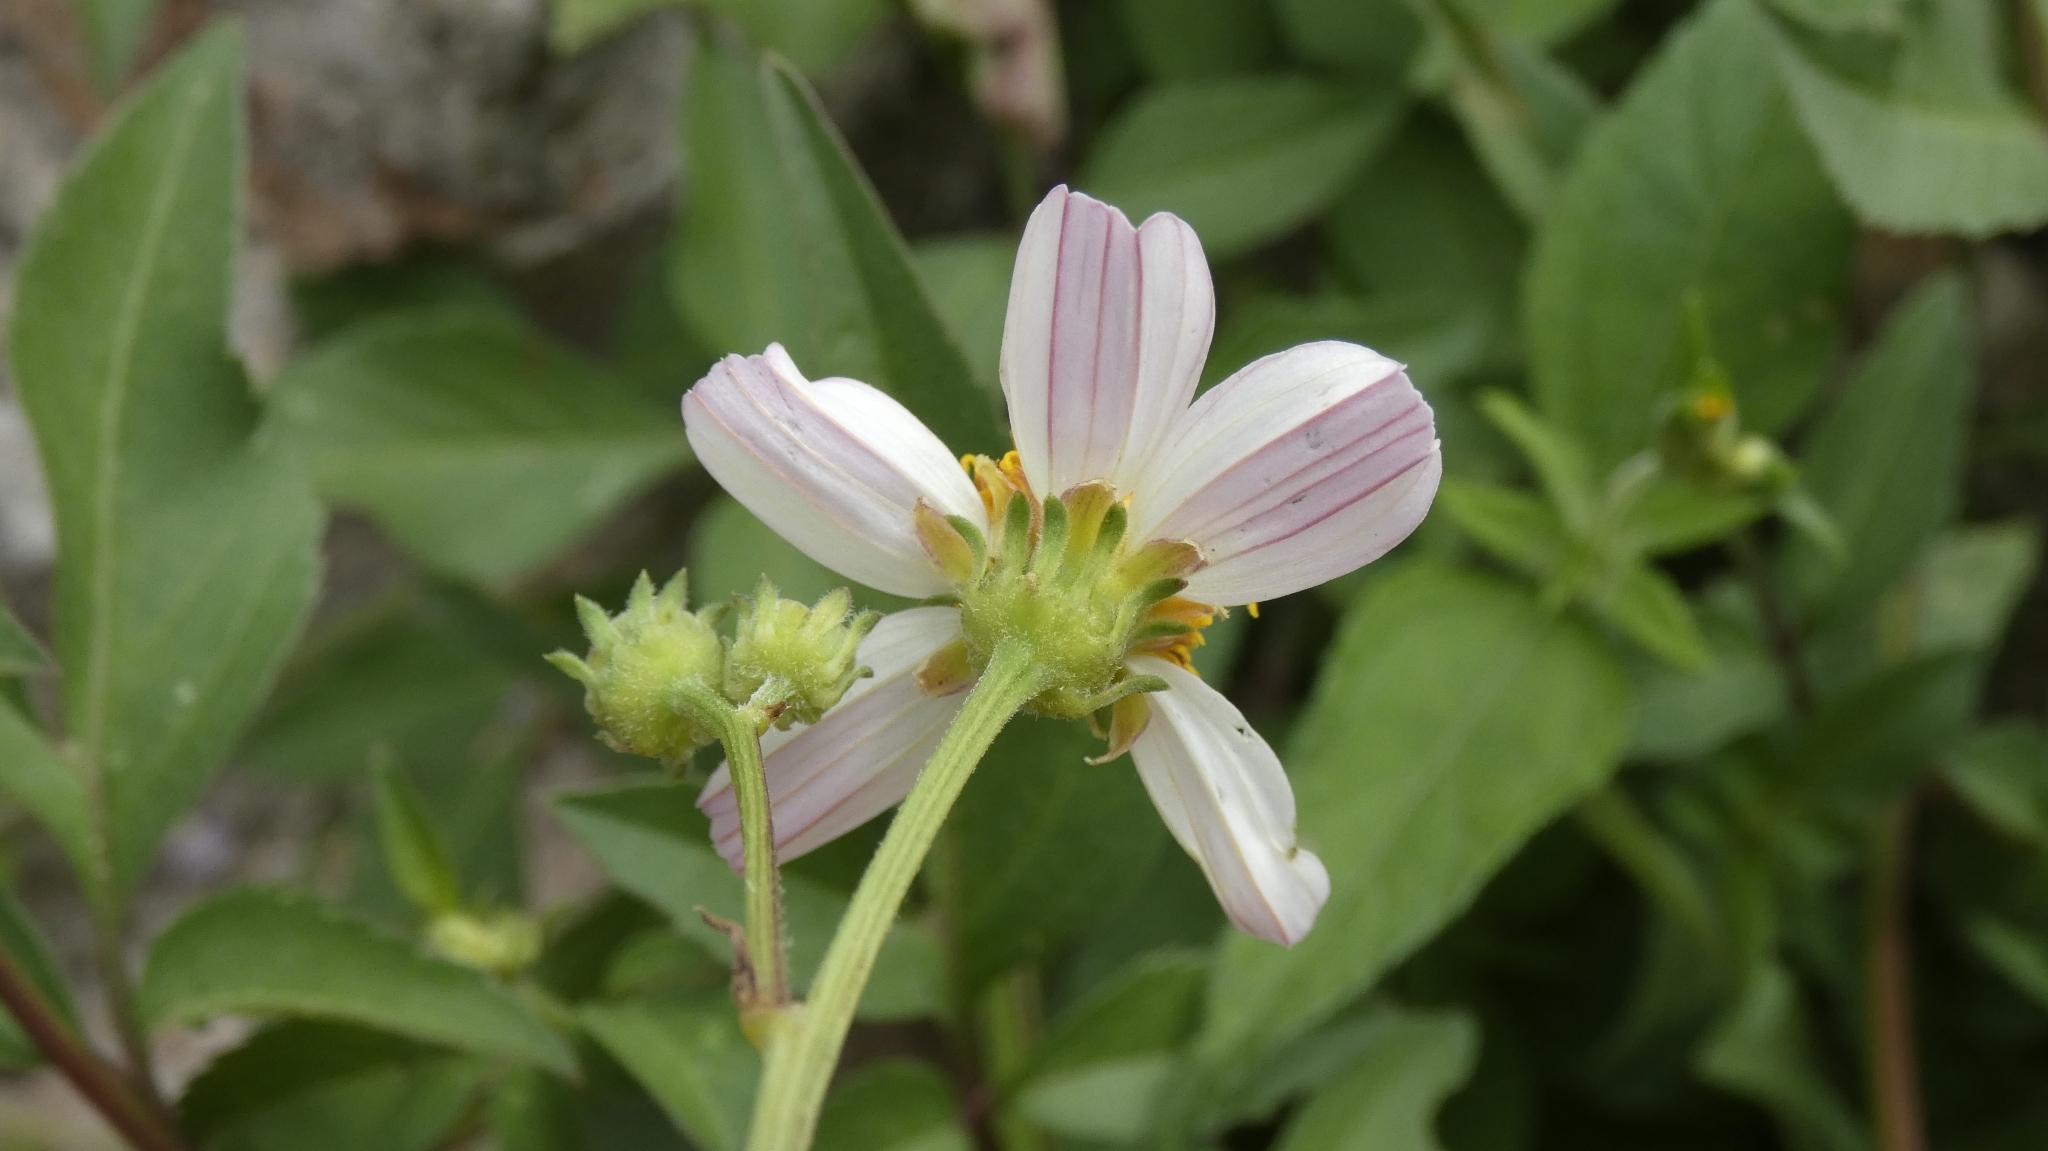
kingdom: Plantae
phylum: Tracheophyta
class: Magnoliopsida
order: Asterales
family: Asteraceae
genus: Bidens
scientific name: Bidens alba
